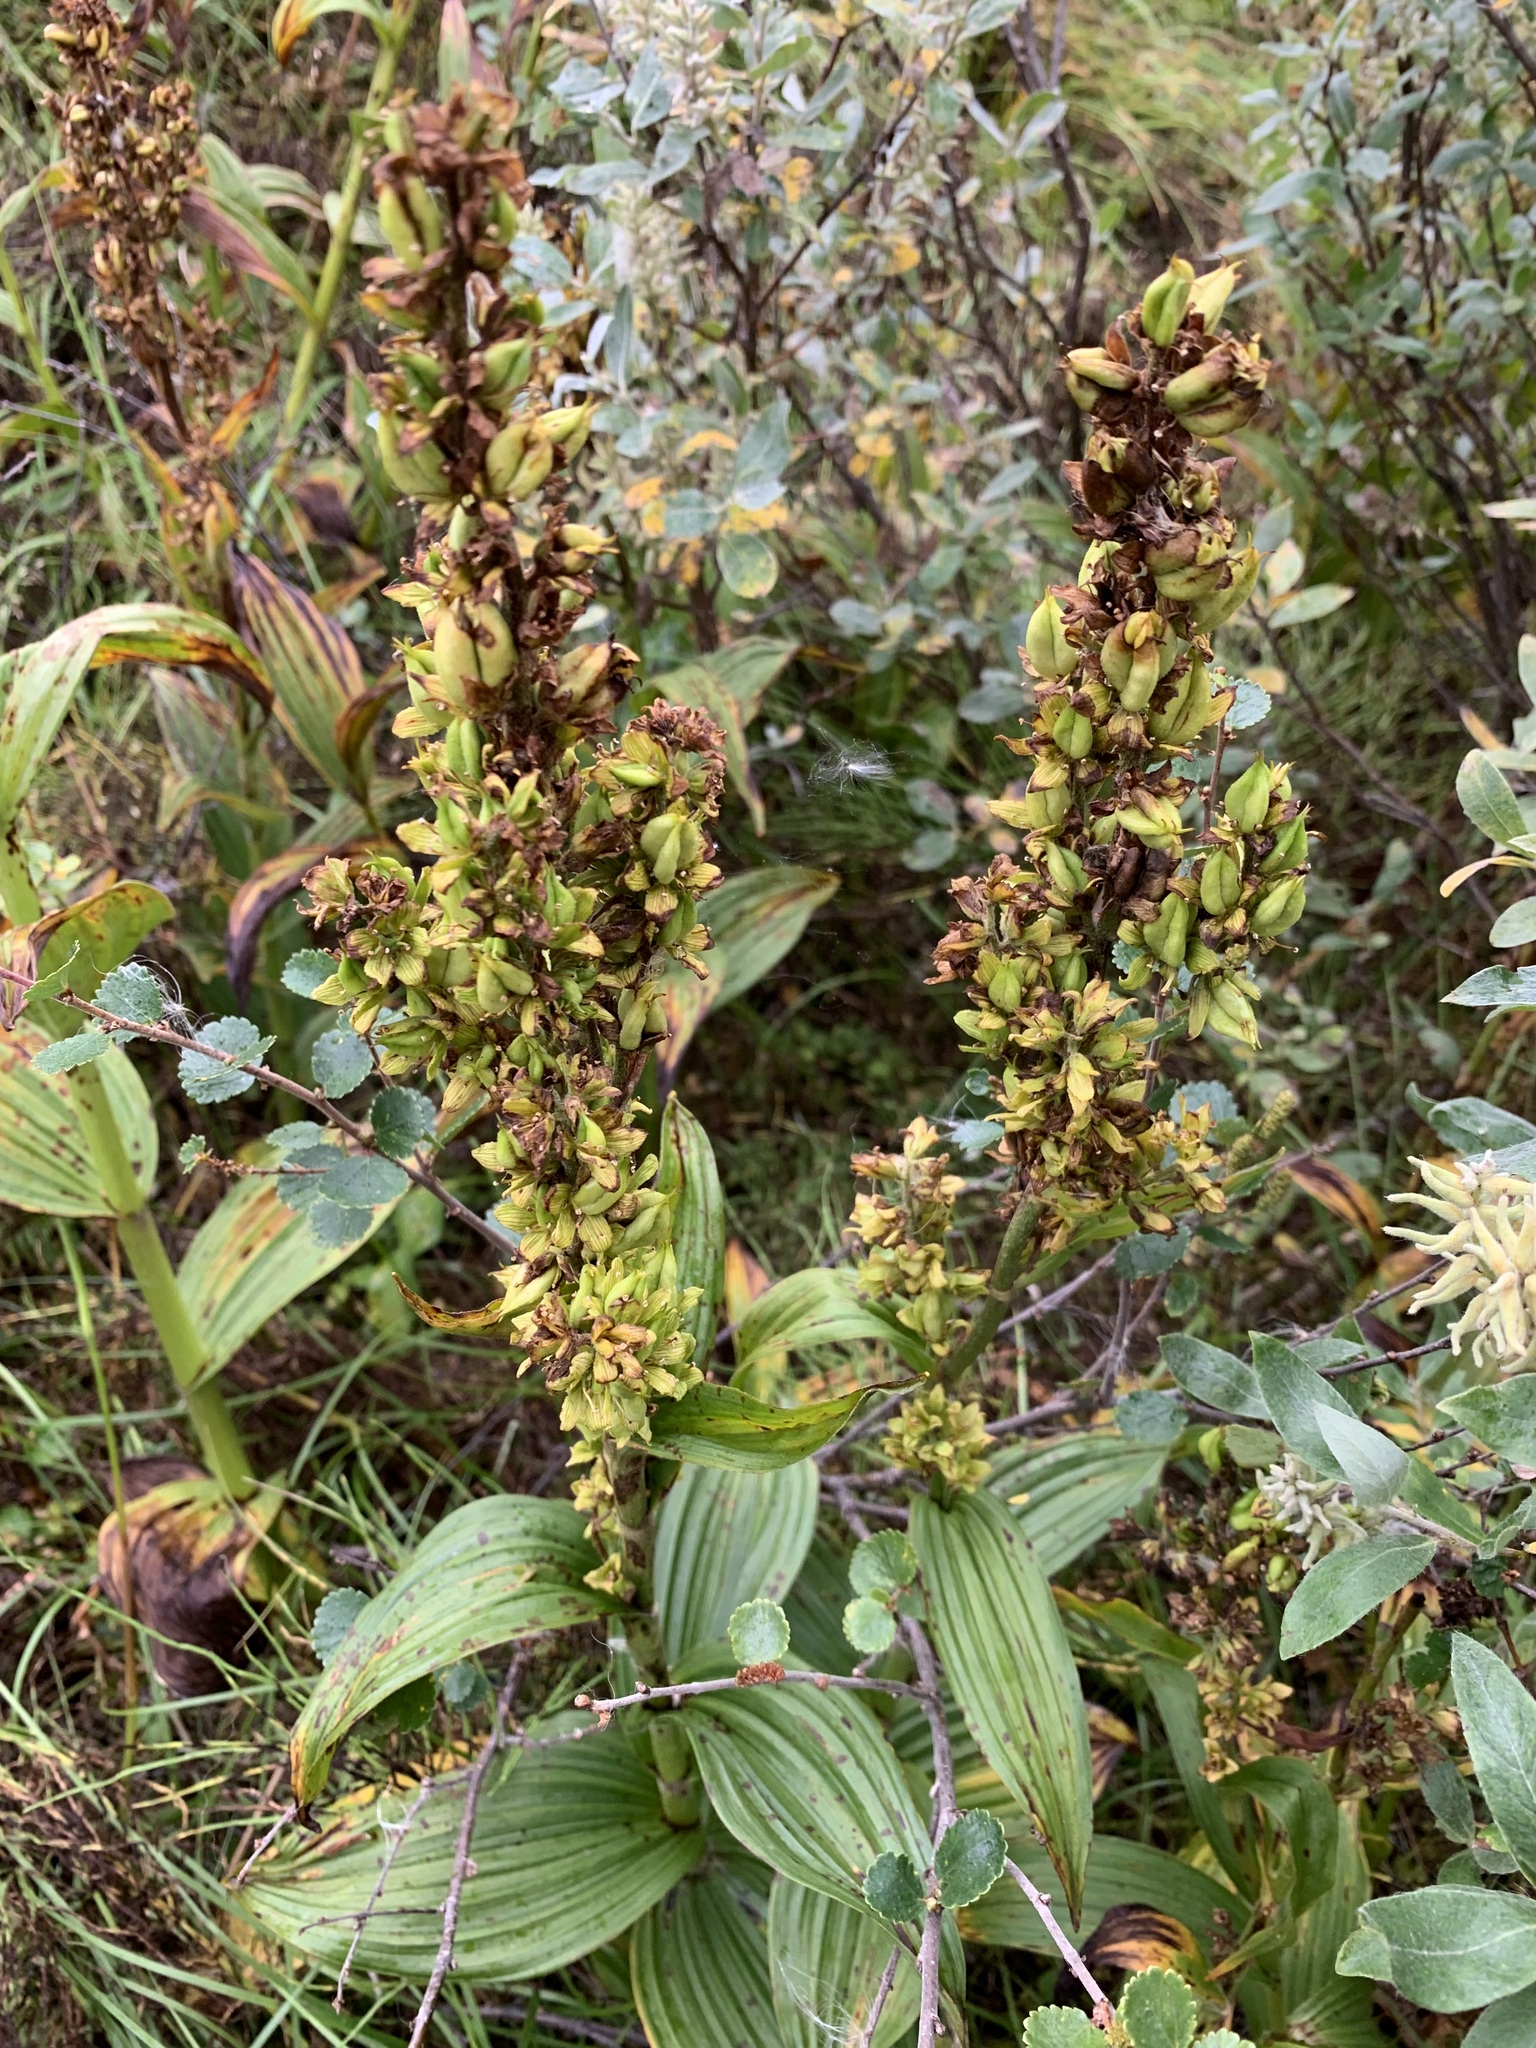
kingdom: Plantae
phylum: Tracheophyta
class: Liliopsida
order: Liliales
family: Melanthiaceae
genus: Veratrum
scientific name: Veratrum lobelianum
